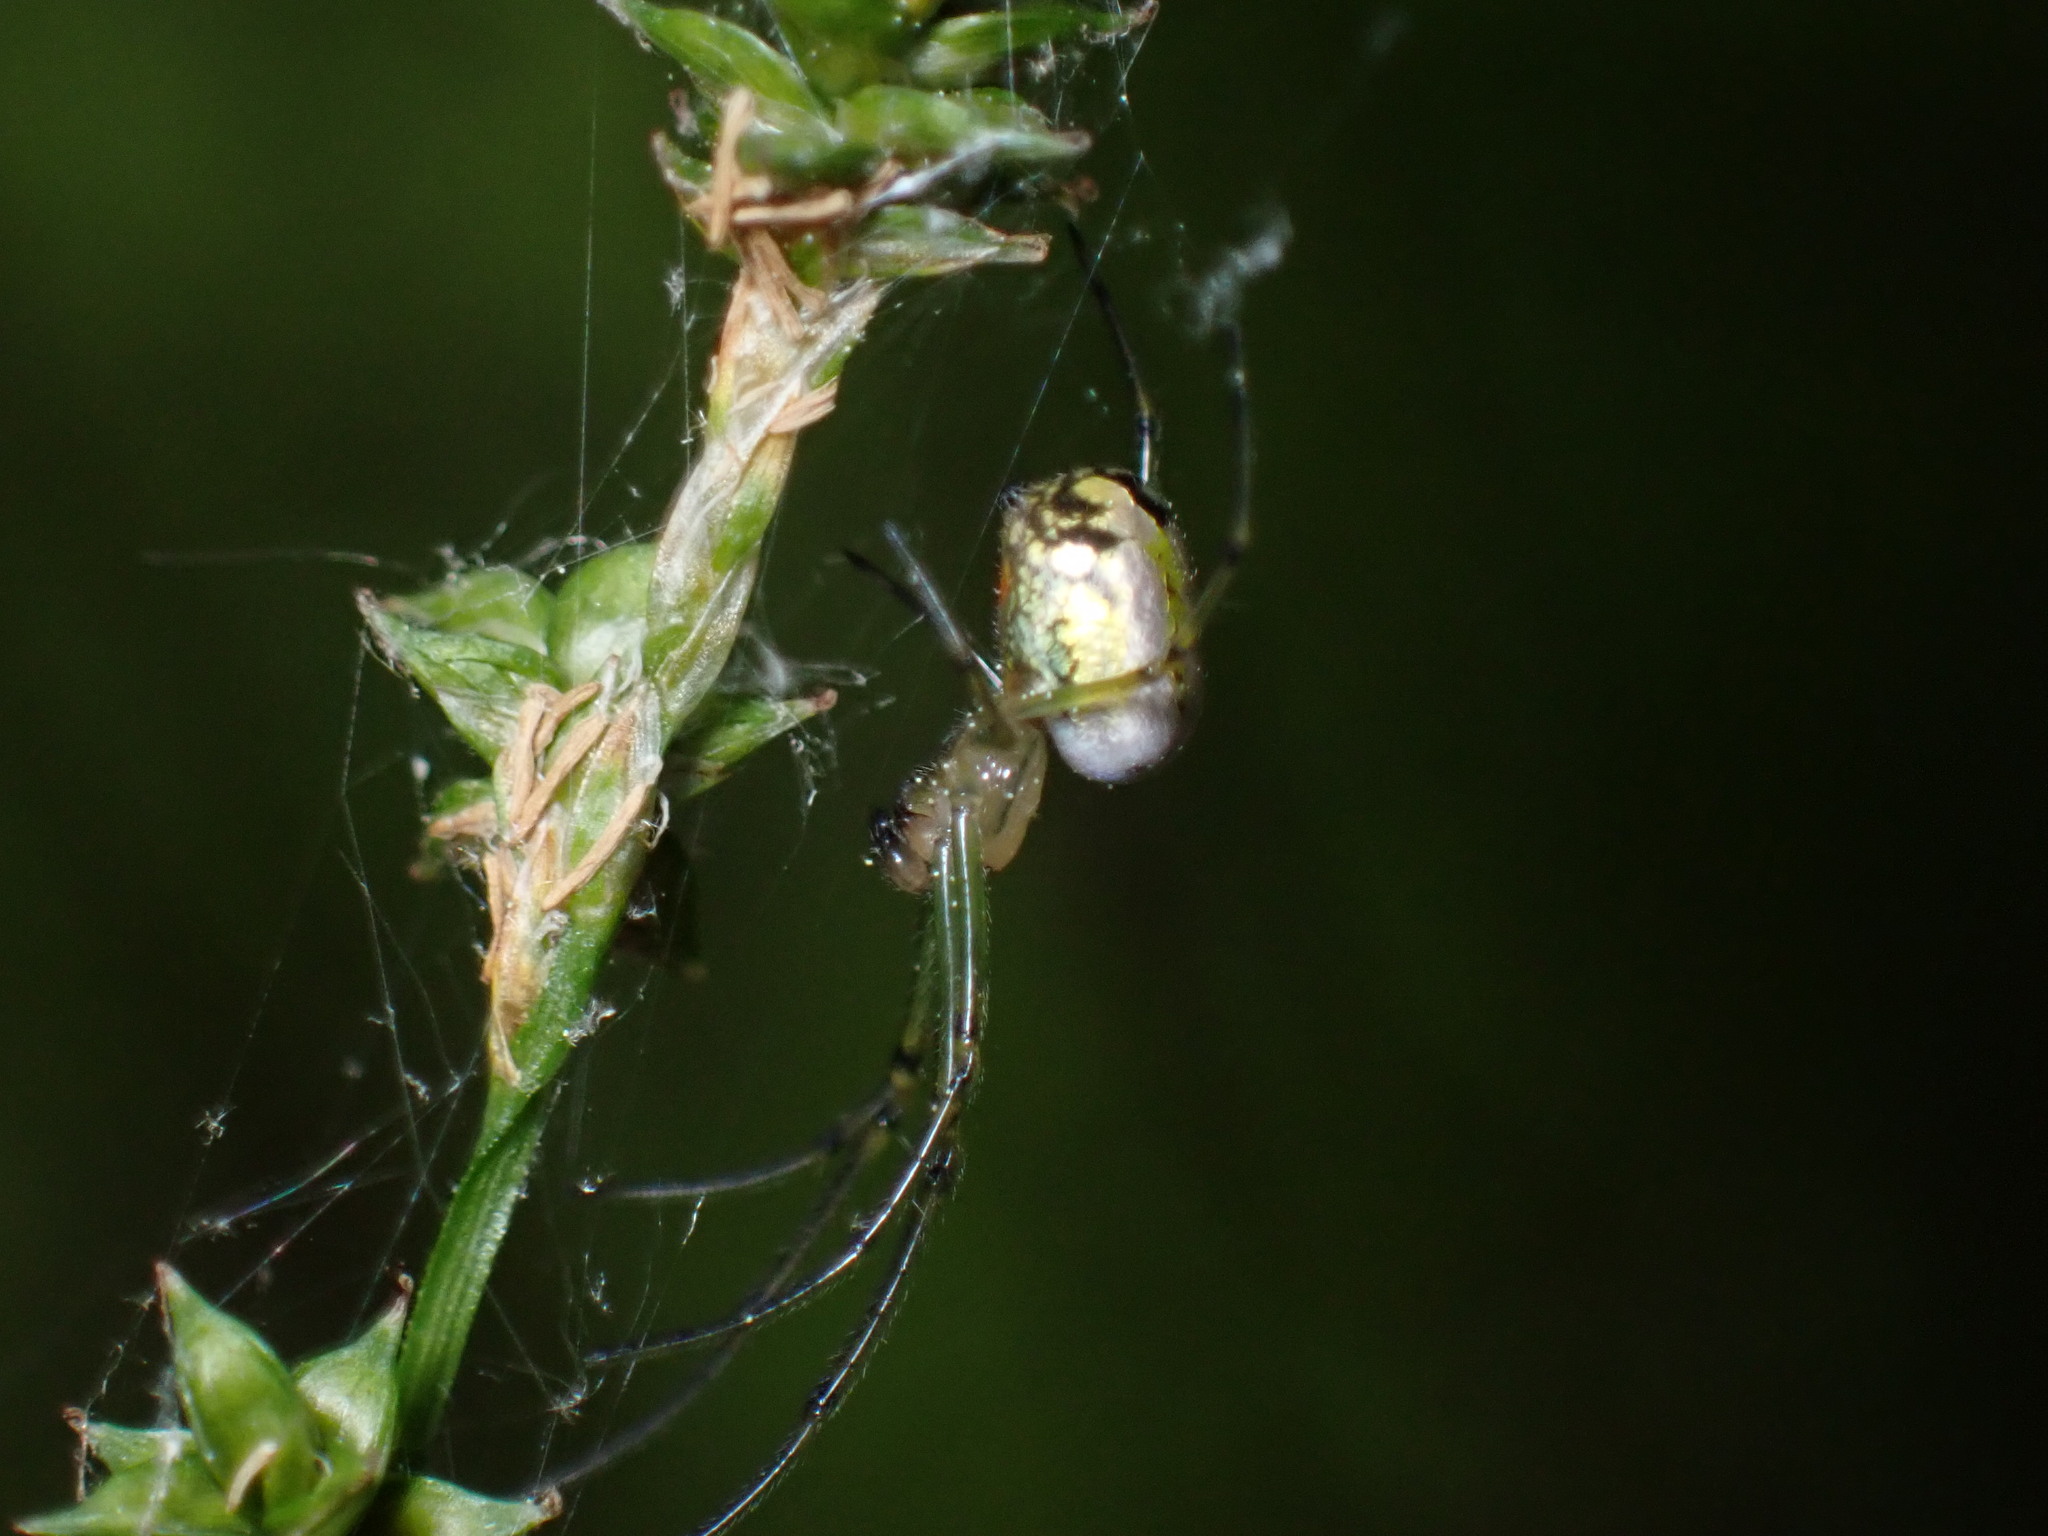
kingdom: Animalia
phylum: Arthropoda
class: Arachnida
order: Araneae
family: Tetragnathidae
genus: Leucauge
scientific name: Leucauge venusta
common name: Longjawed orb weavers
